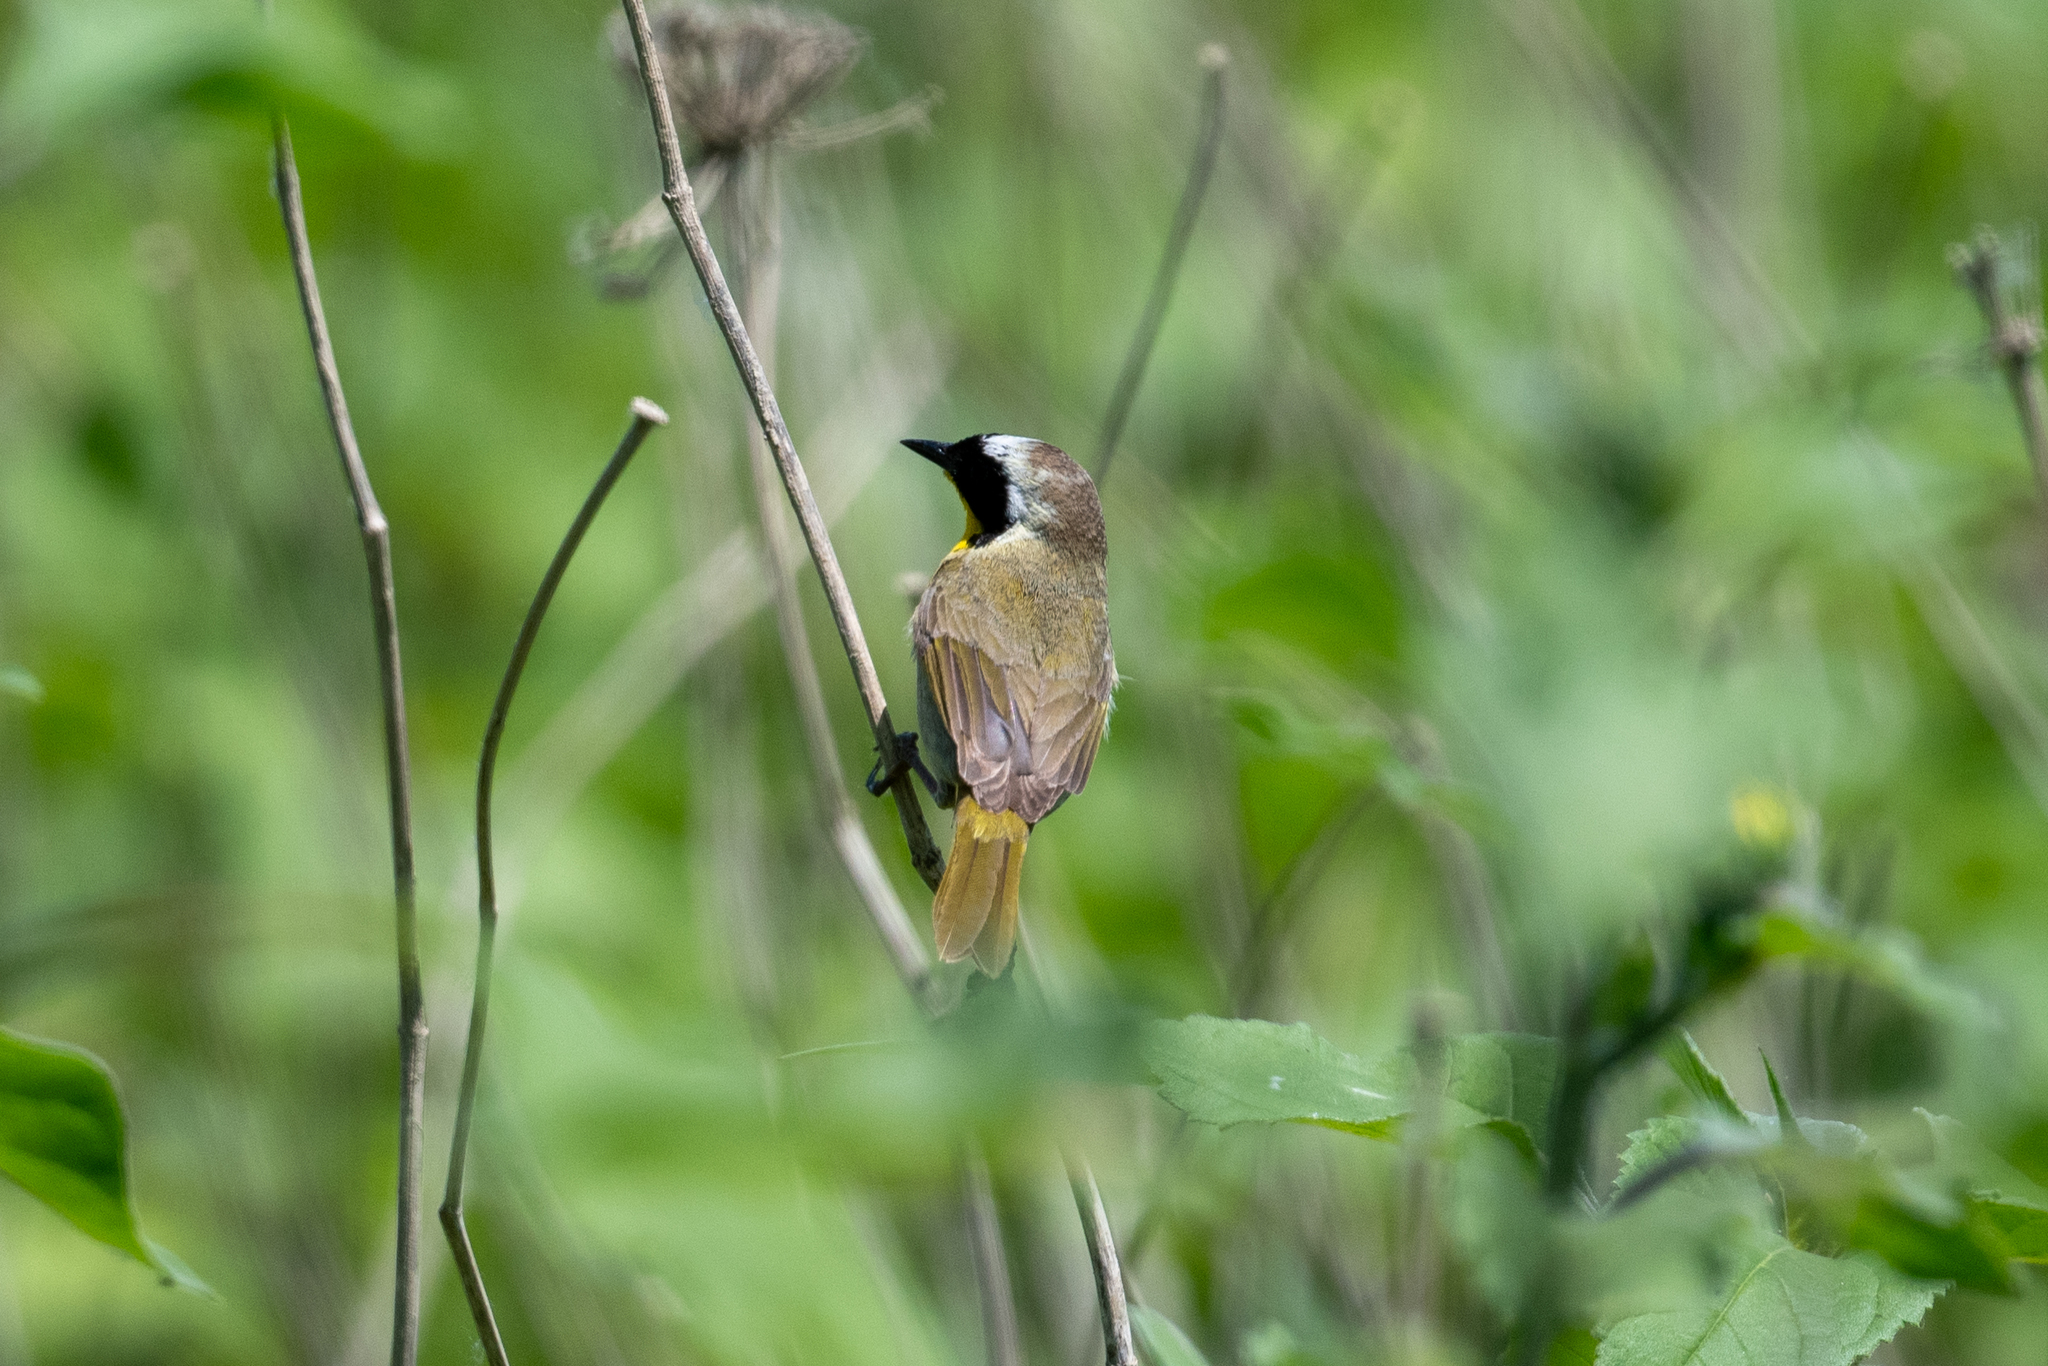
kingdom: Animalia
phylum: Chordata
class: Aves
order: Passeriformes
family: Parulidae
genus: Geothlypis
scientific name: Geothlypis trichas
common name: Common yellowthroat
